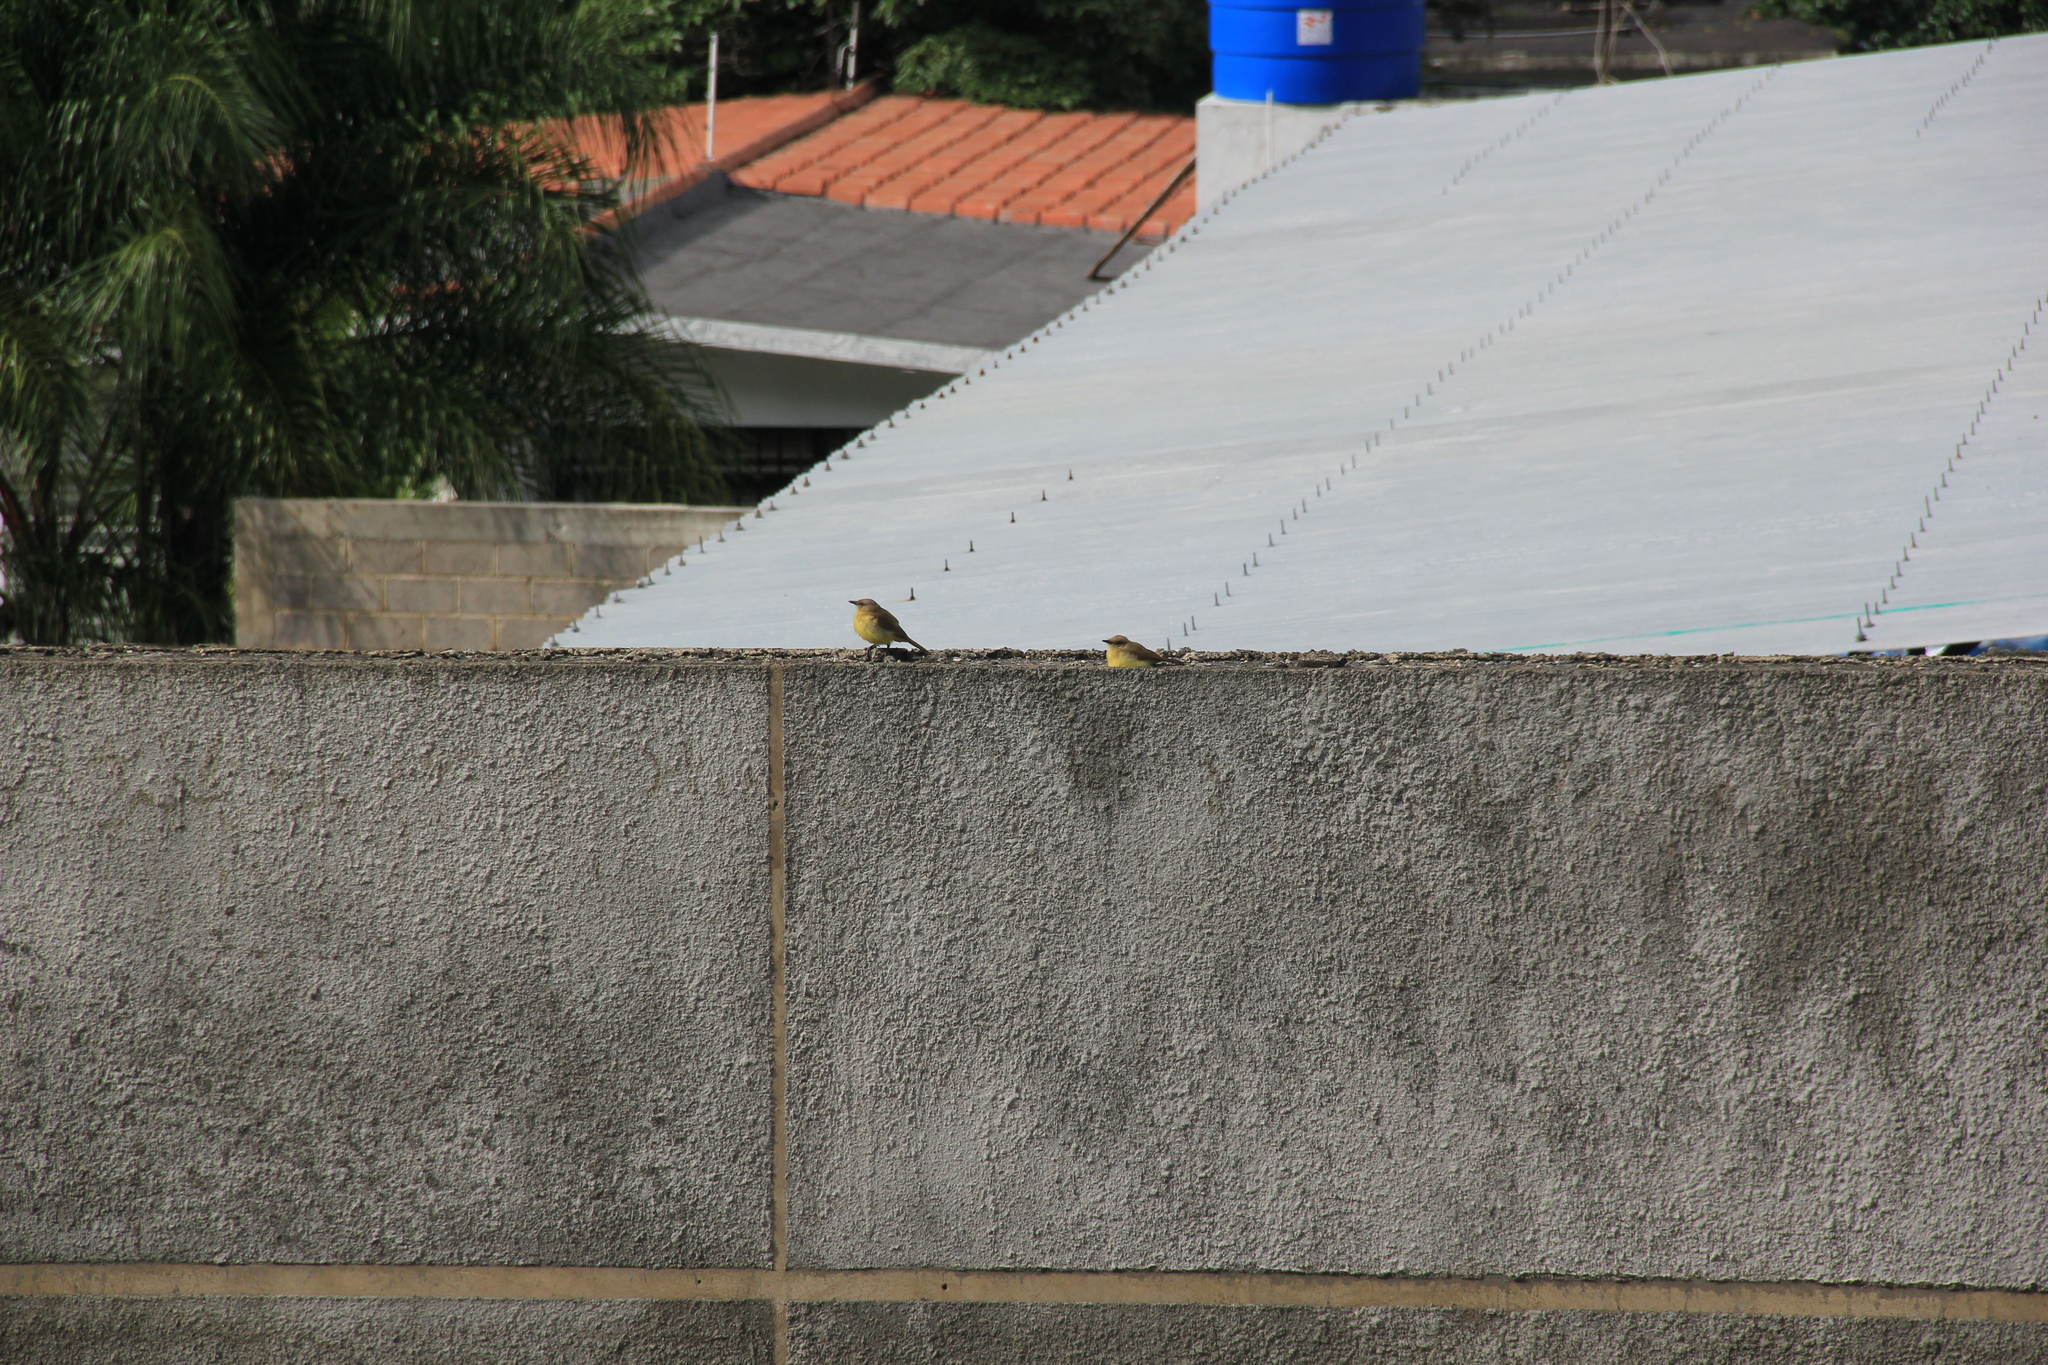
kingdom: Animalia
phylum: Chordata
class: Aves
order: Passeriformes
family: Tyrannidae
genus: Machetornis
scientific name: Machetornis rixosa
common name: Cattle tyrant
